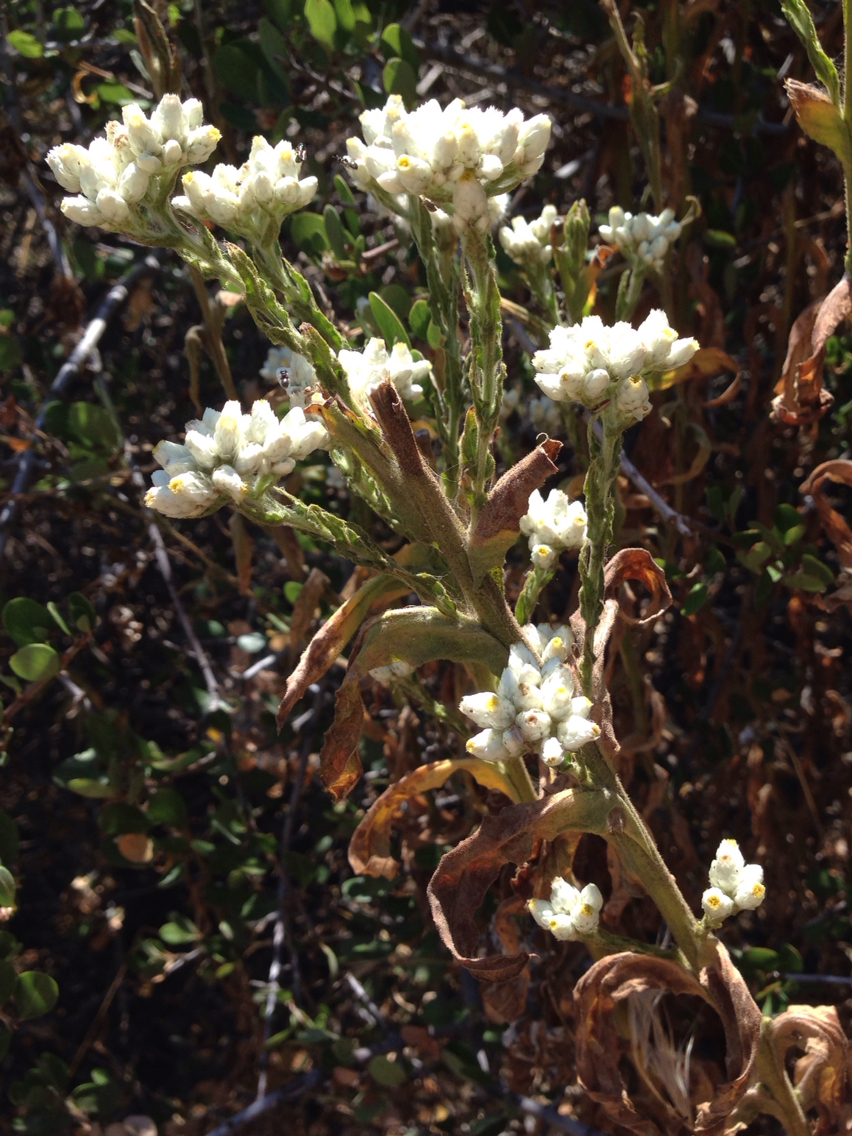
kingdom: Plantae
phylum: Tracheophyta
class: Magnoliopsida
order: Asterales
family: Asteraceae
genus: Pseudognaphalium
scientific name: Pseudognaphalium californicum
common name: California rabbit-tobacco
